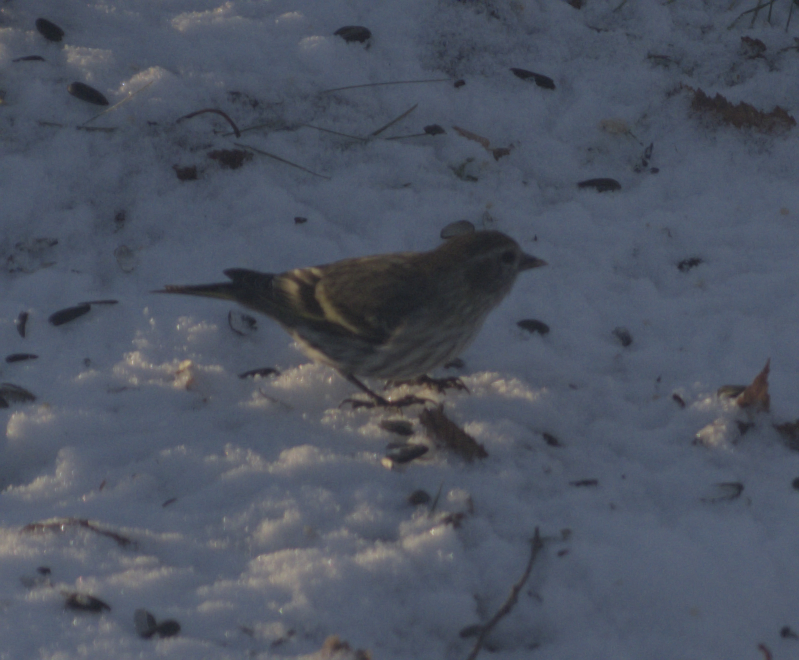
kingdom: Animalia
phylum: Chordata
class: Aves
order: Passeriformes
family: Fringillidae
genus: Spinus
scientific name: Spinus pinus
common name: Pine siskin
